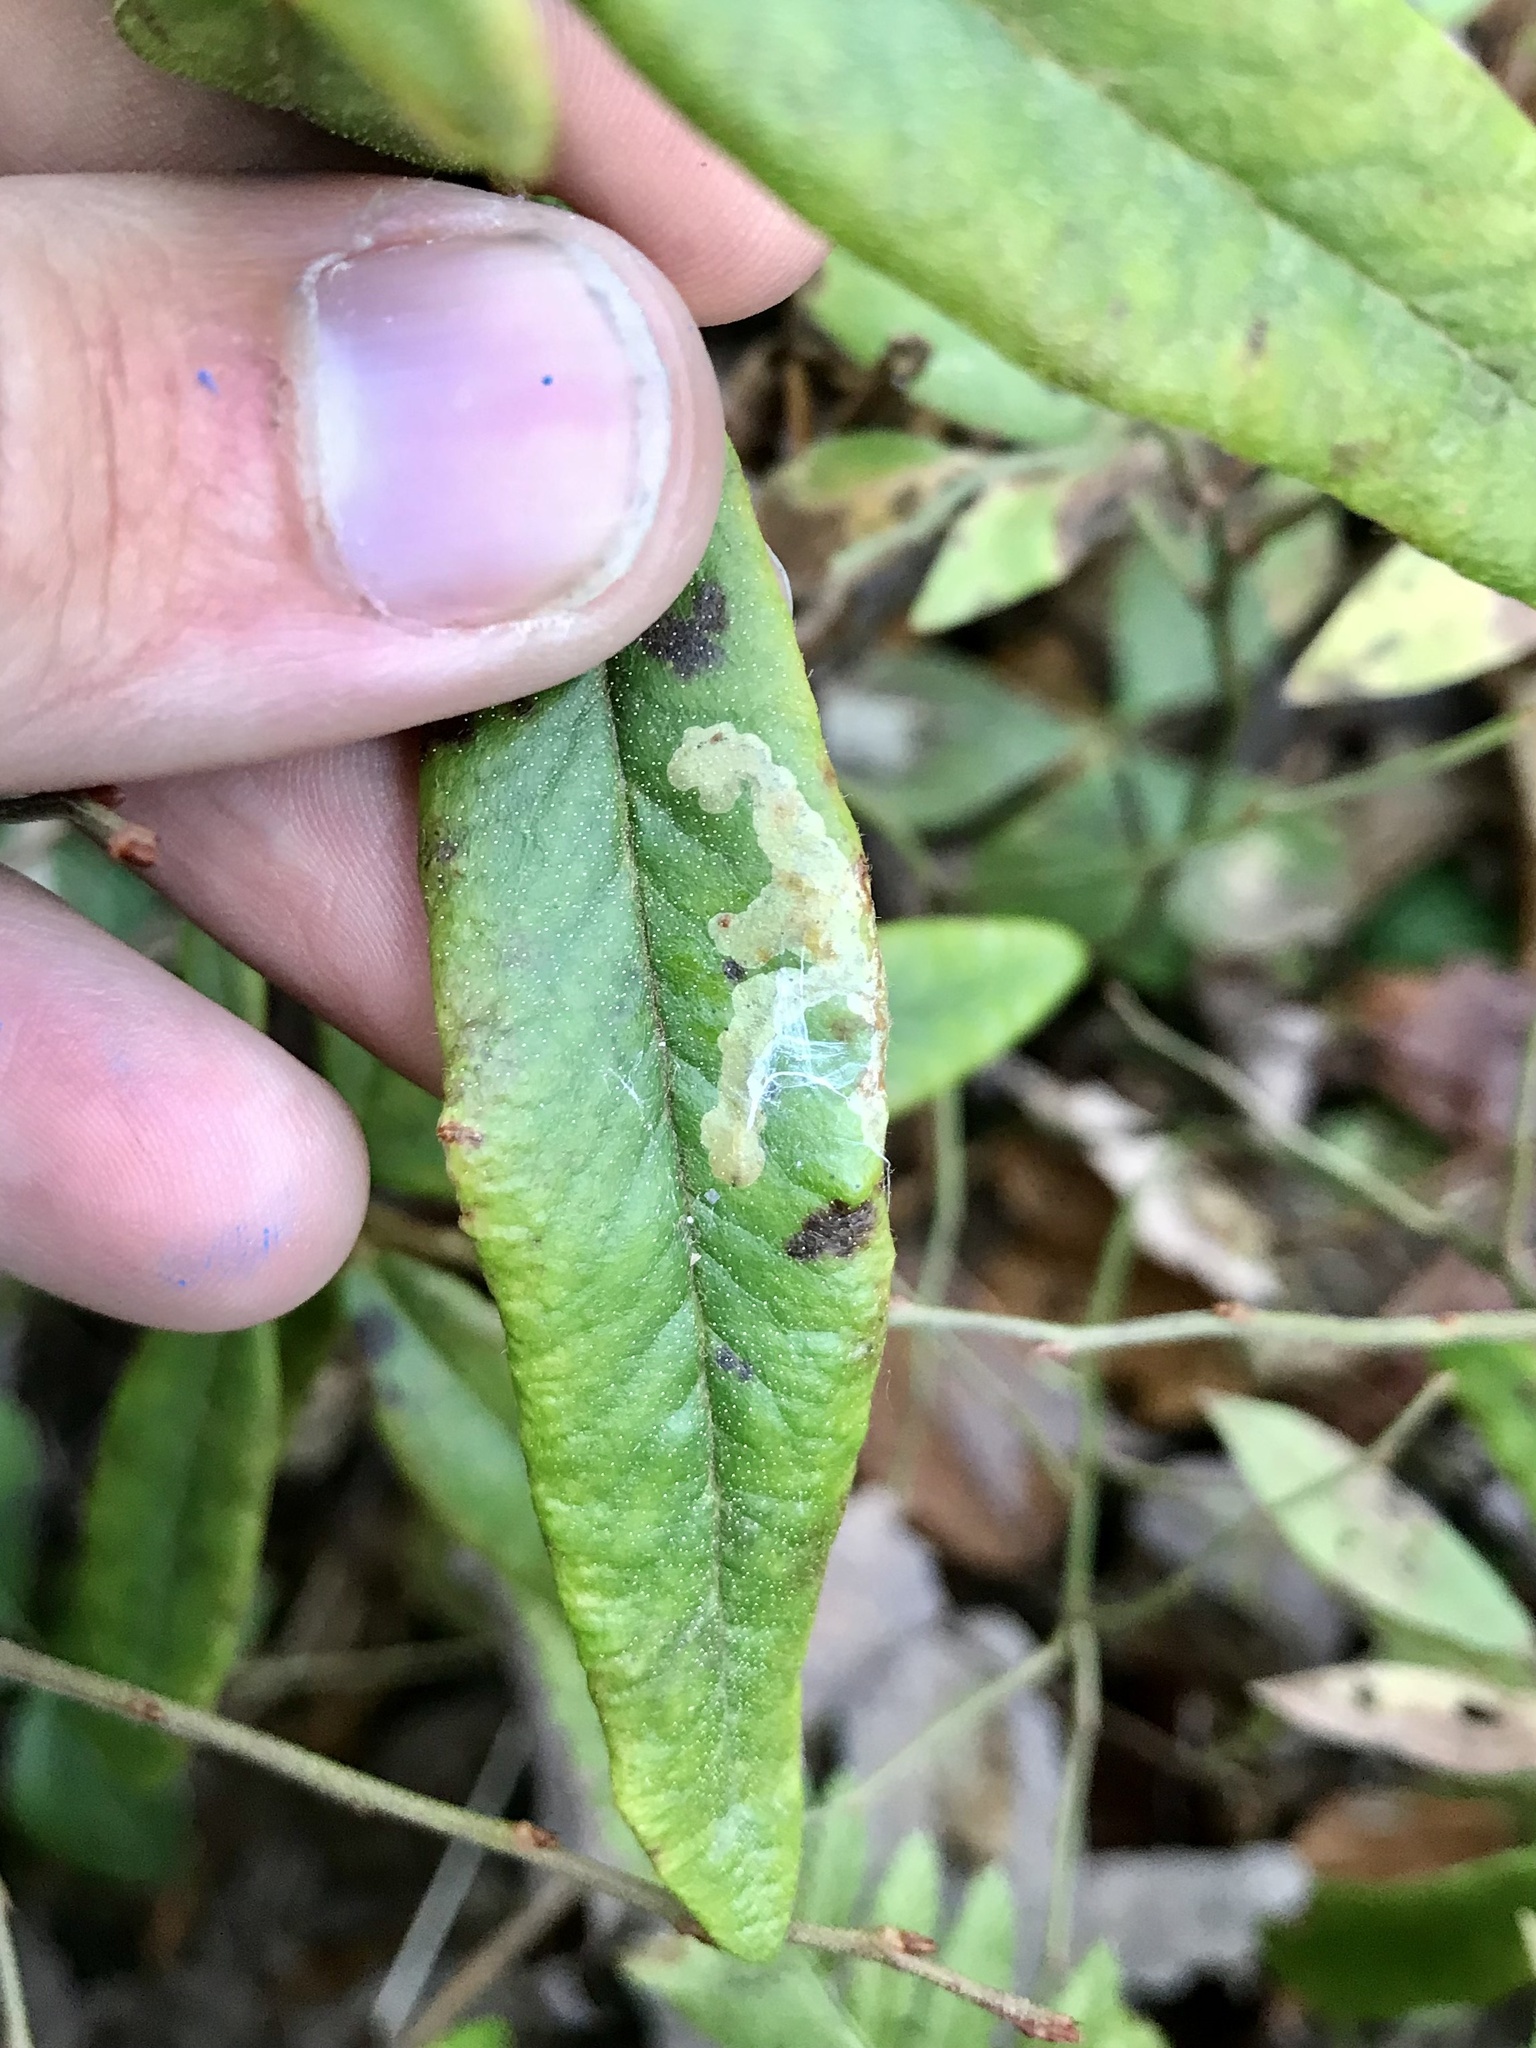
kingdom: Animalia
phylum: Arthropoda
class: Insecta
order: Lepidoptera
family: Gracillariidae
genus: Phyllonorycter
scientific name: Phyllonorycter ledella
